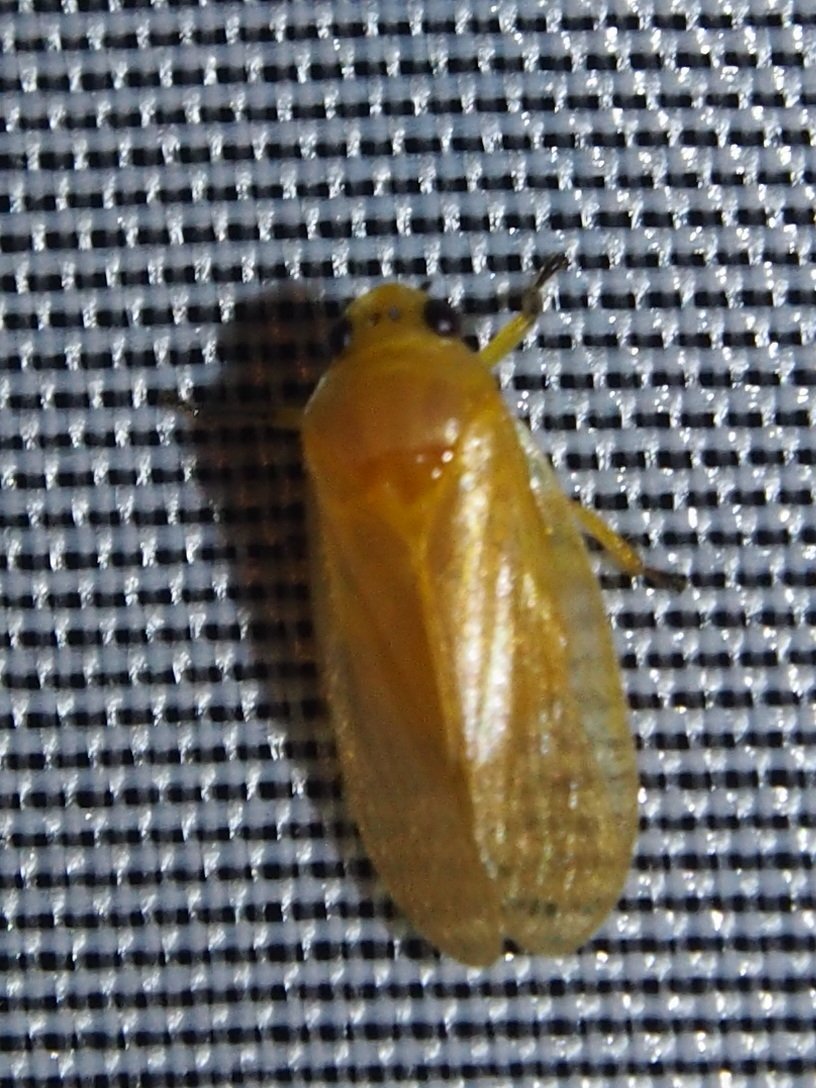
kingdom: Animalia
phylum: Arthropoda
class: Insecta
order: Hemiptera
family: Cercopidae
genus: Catrimania
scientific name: Catrimania livida
